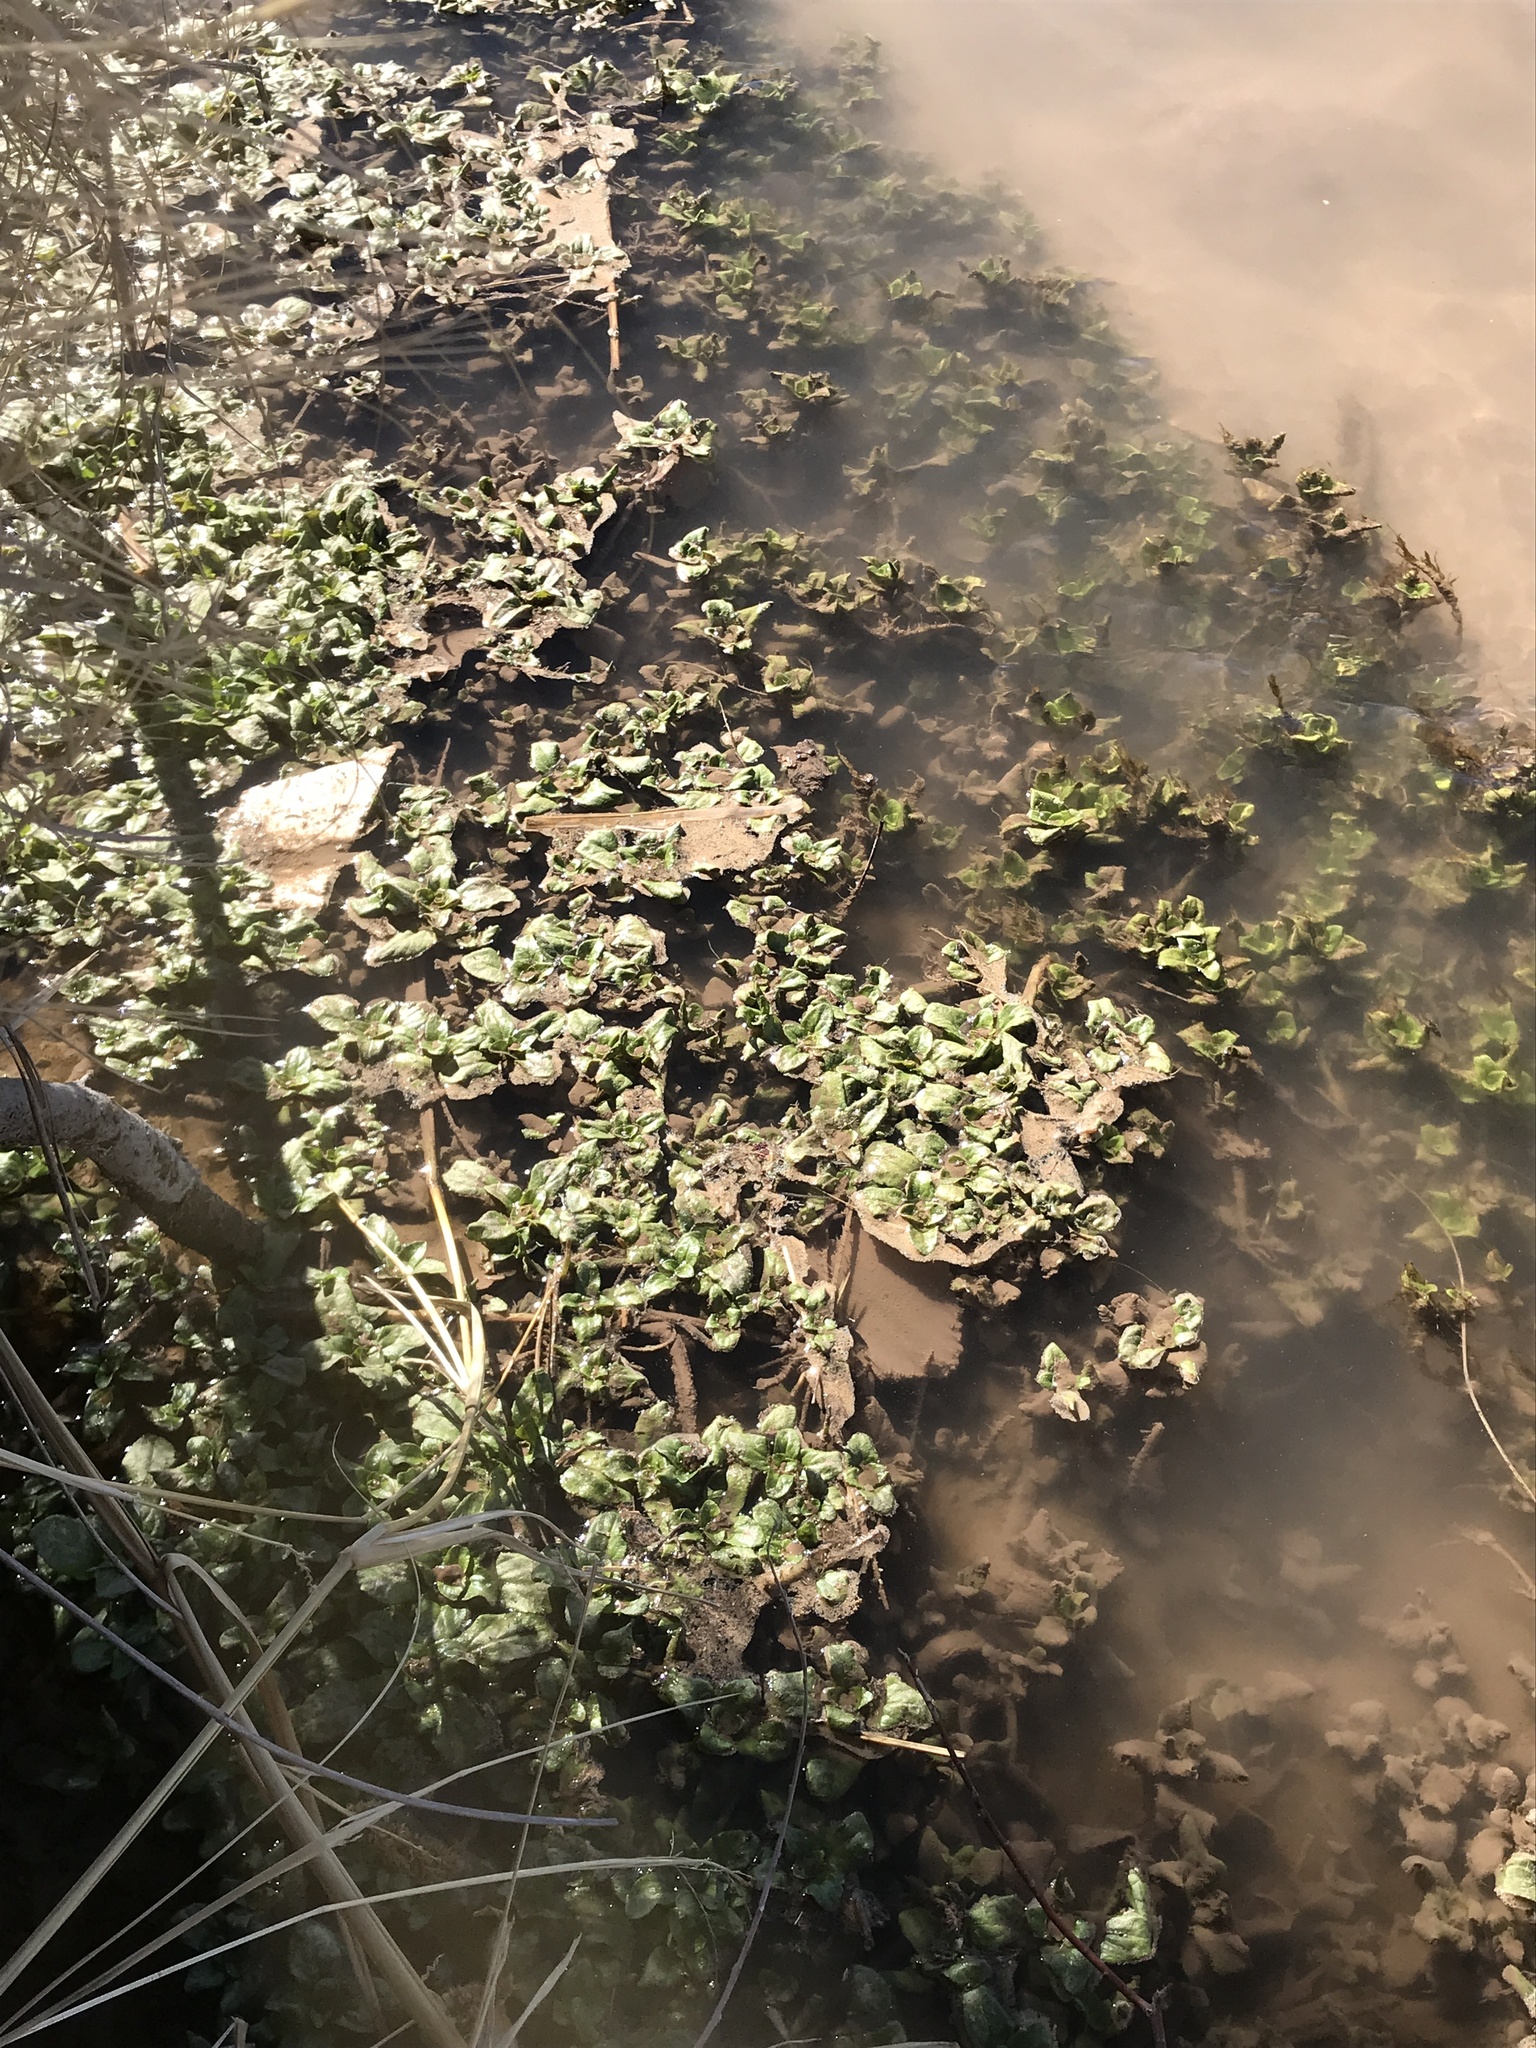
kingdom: Plantae
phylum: Tracheophyta
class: Magnoliopsida
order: Brassicales
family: Brassicaceae
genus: Nasturtium
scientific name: Nasturtium officinale
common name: Watercress
